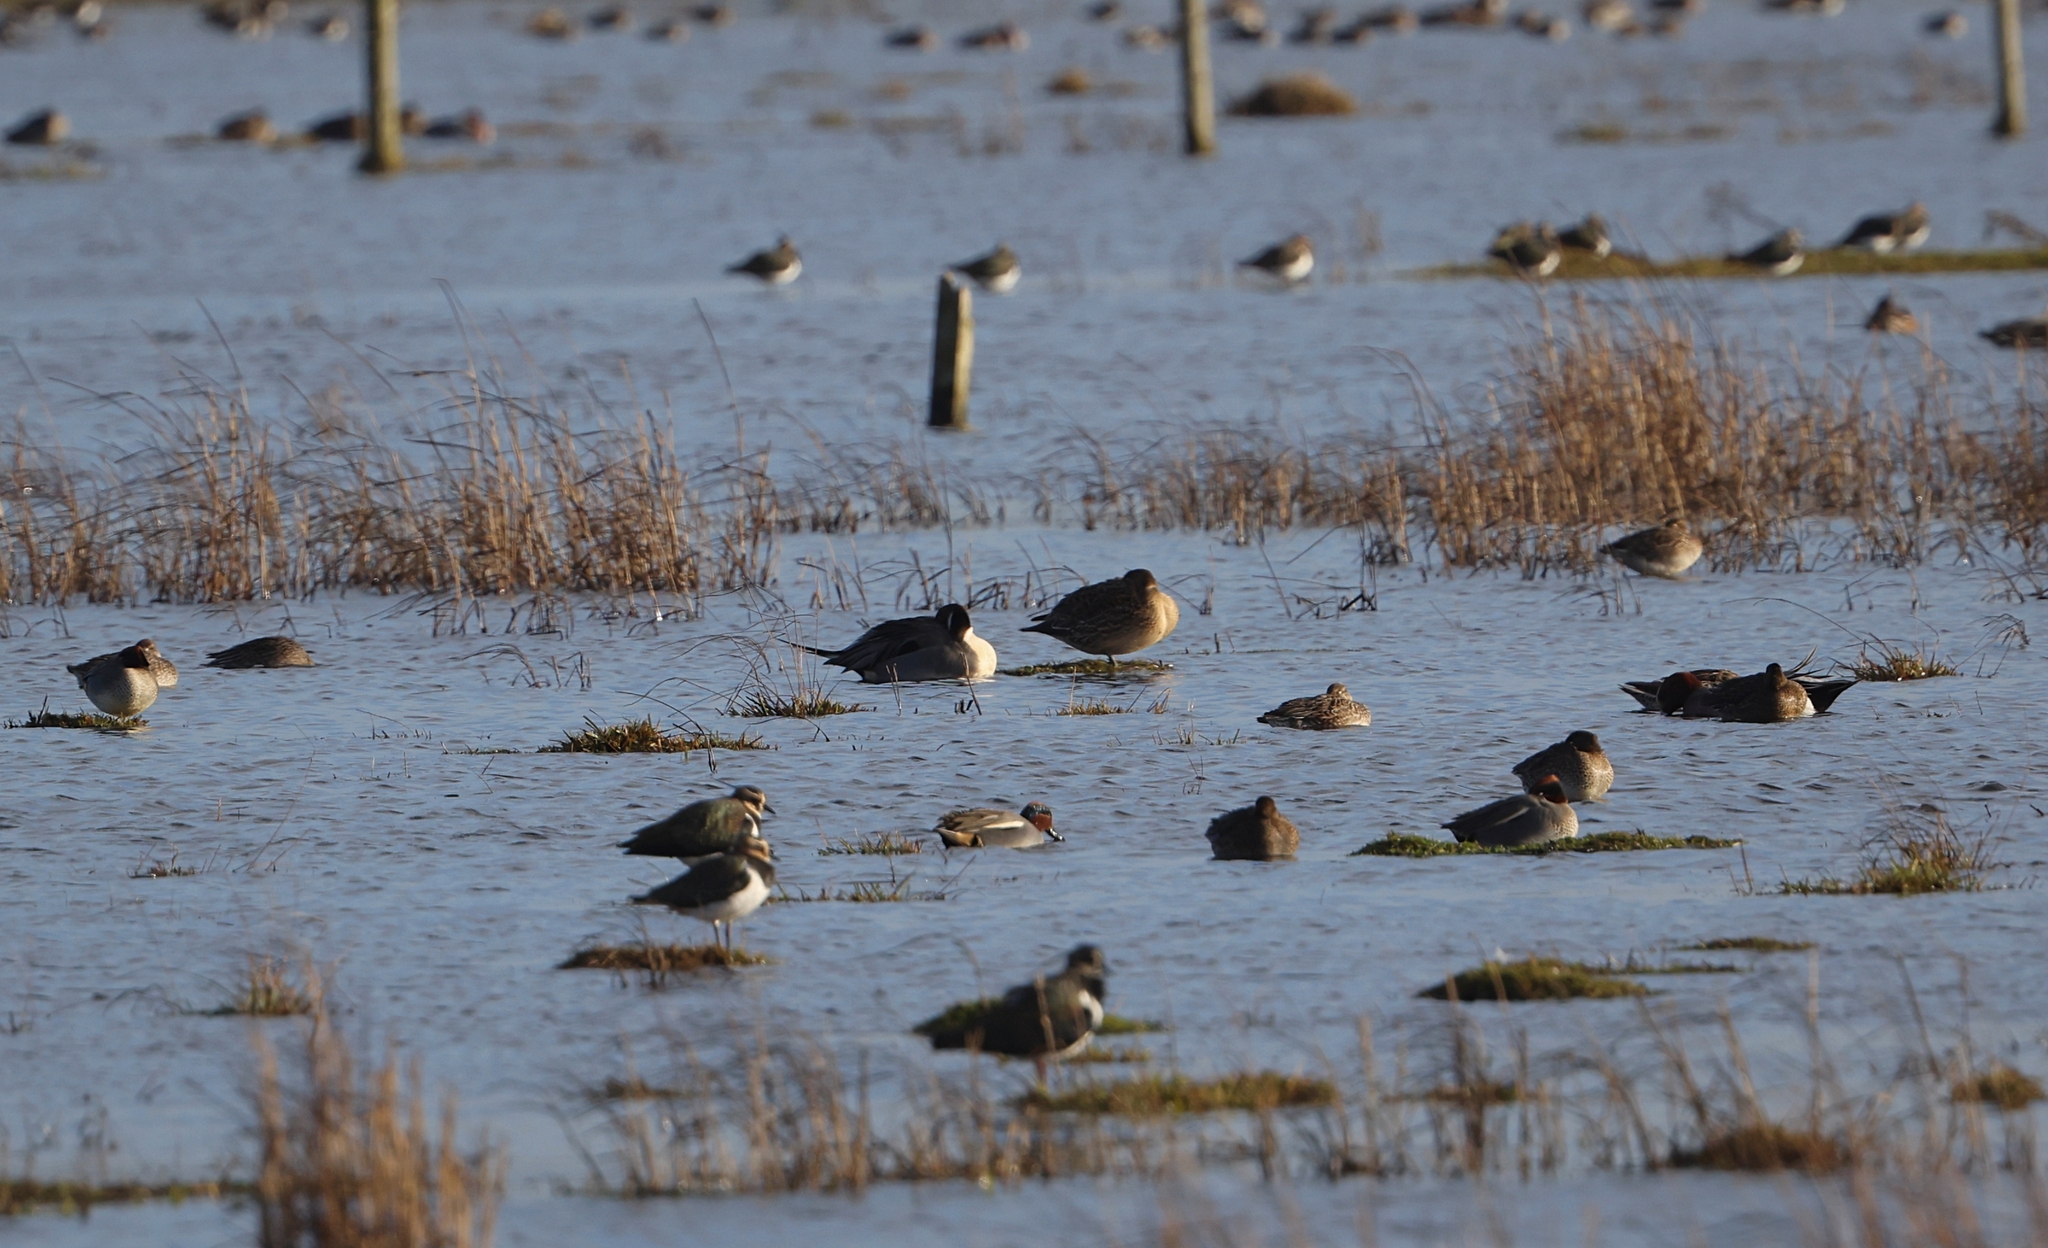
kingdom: Animalia
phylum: Chordata
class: Aves
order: Anseriformes
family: Anatidae
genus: Anas
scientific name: Anas crecca
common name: Eurasian teal
